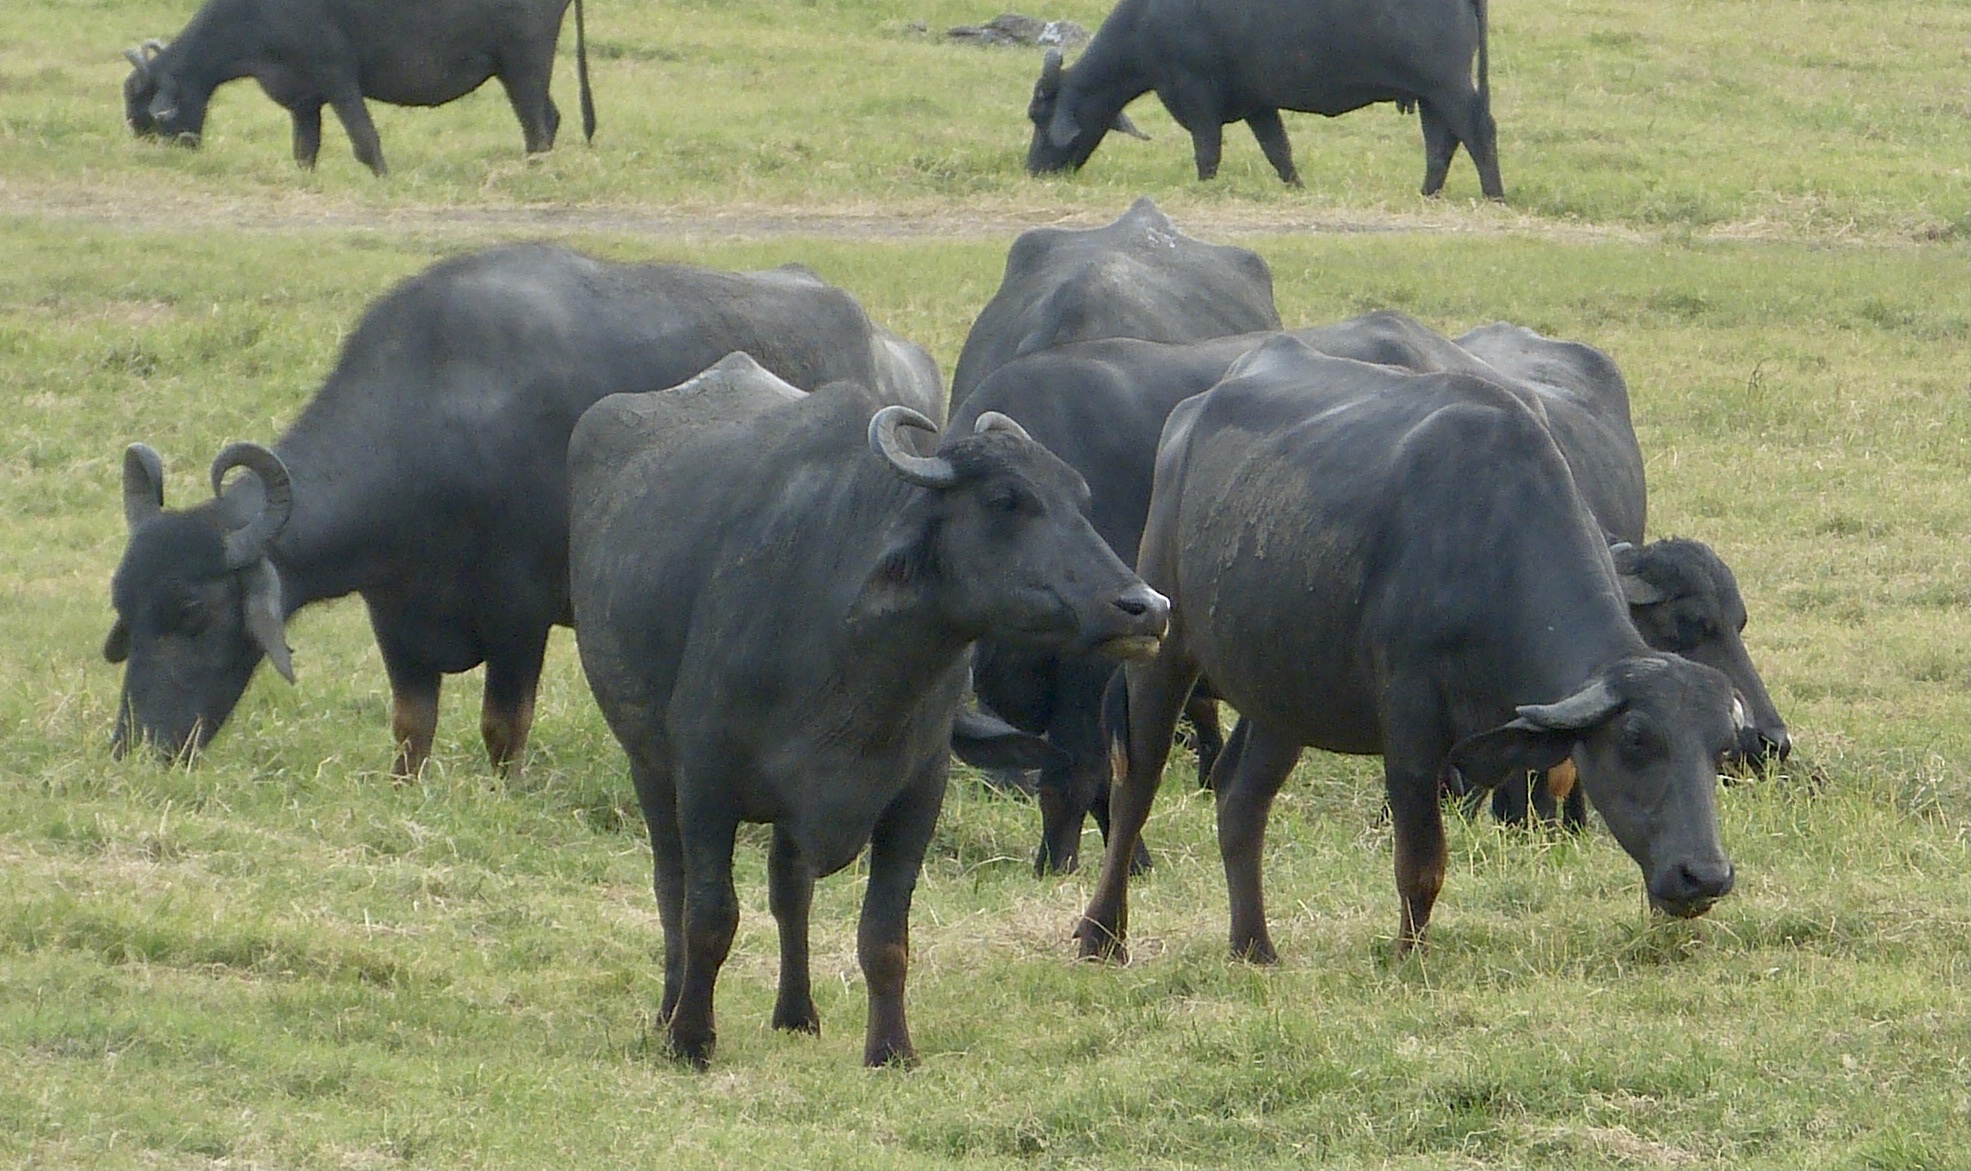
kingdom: Animalia
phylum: Chordata
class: Mammalia
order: Artiodactyla
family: Bovidae
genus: Bubalus
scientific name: Bubalus bubalis
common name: Water buffalo
